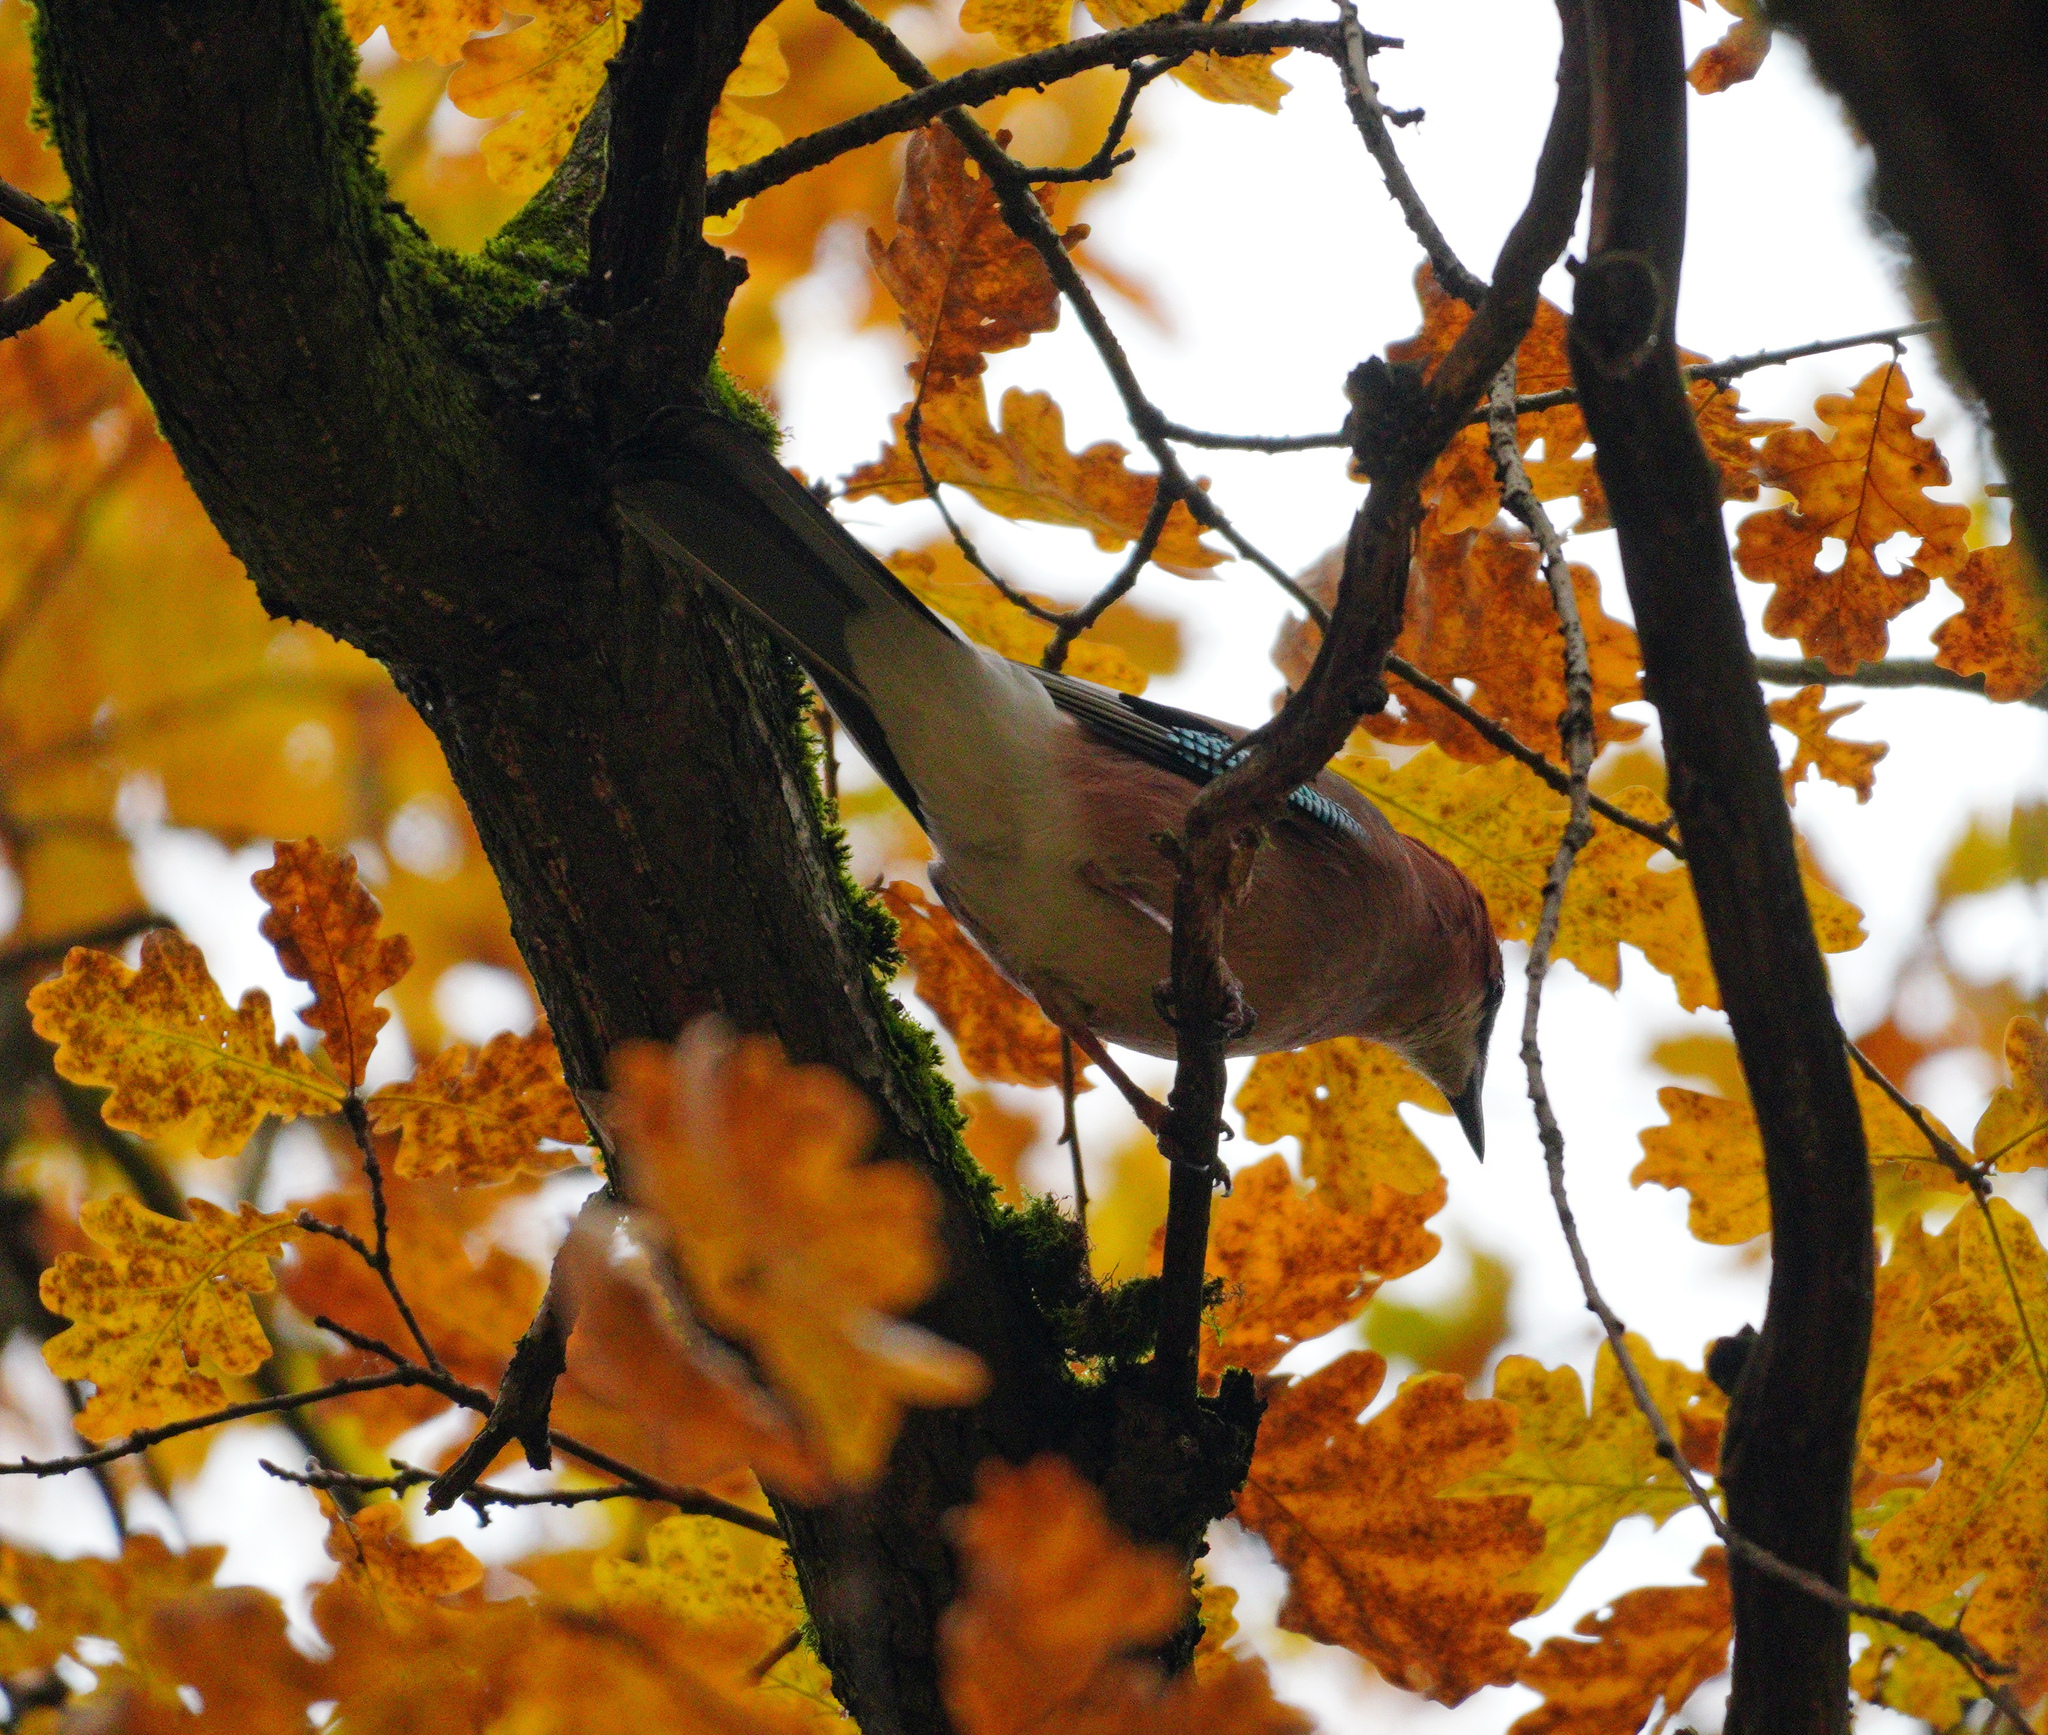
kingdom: Animalia
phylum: Chordata
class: Aves
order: Passeriformes
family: Corvidae
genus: Garrulus
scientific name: Garrulus glandarius
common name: Eurasian jay
